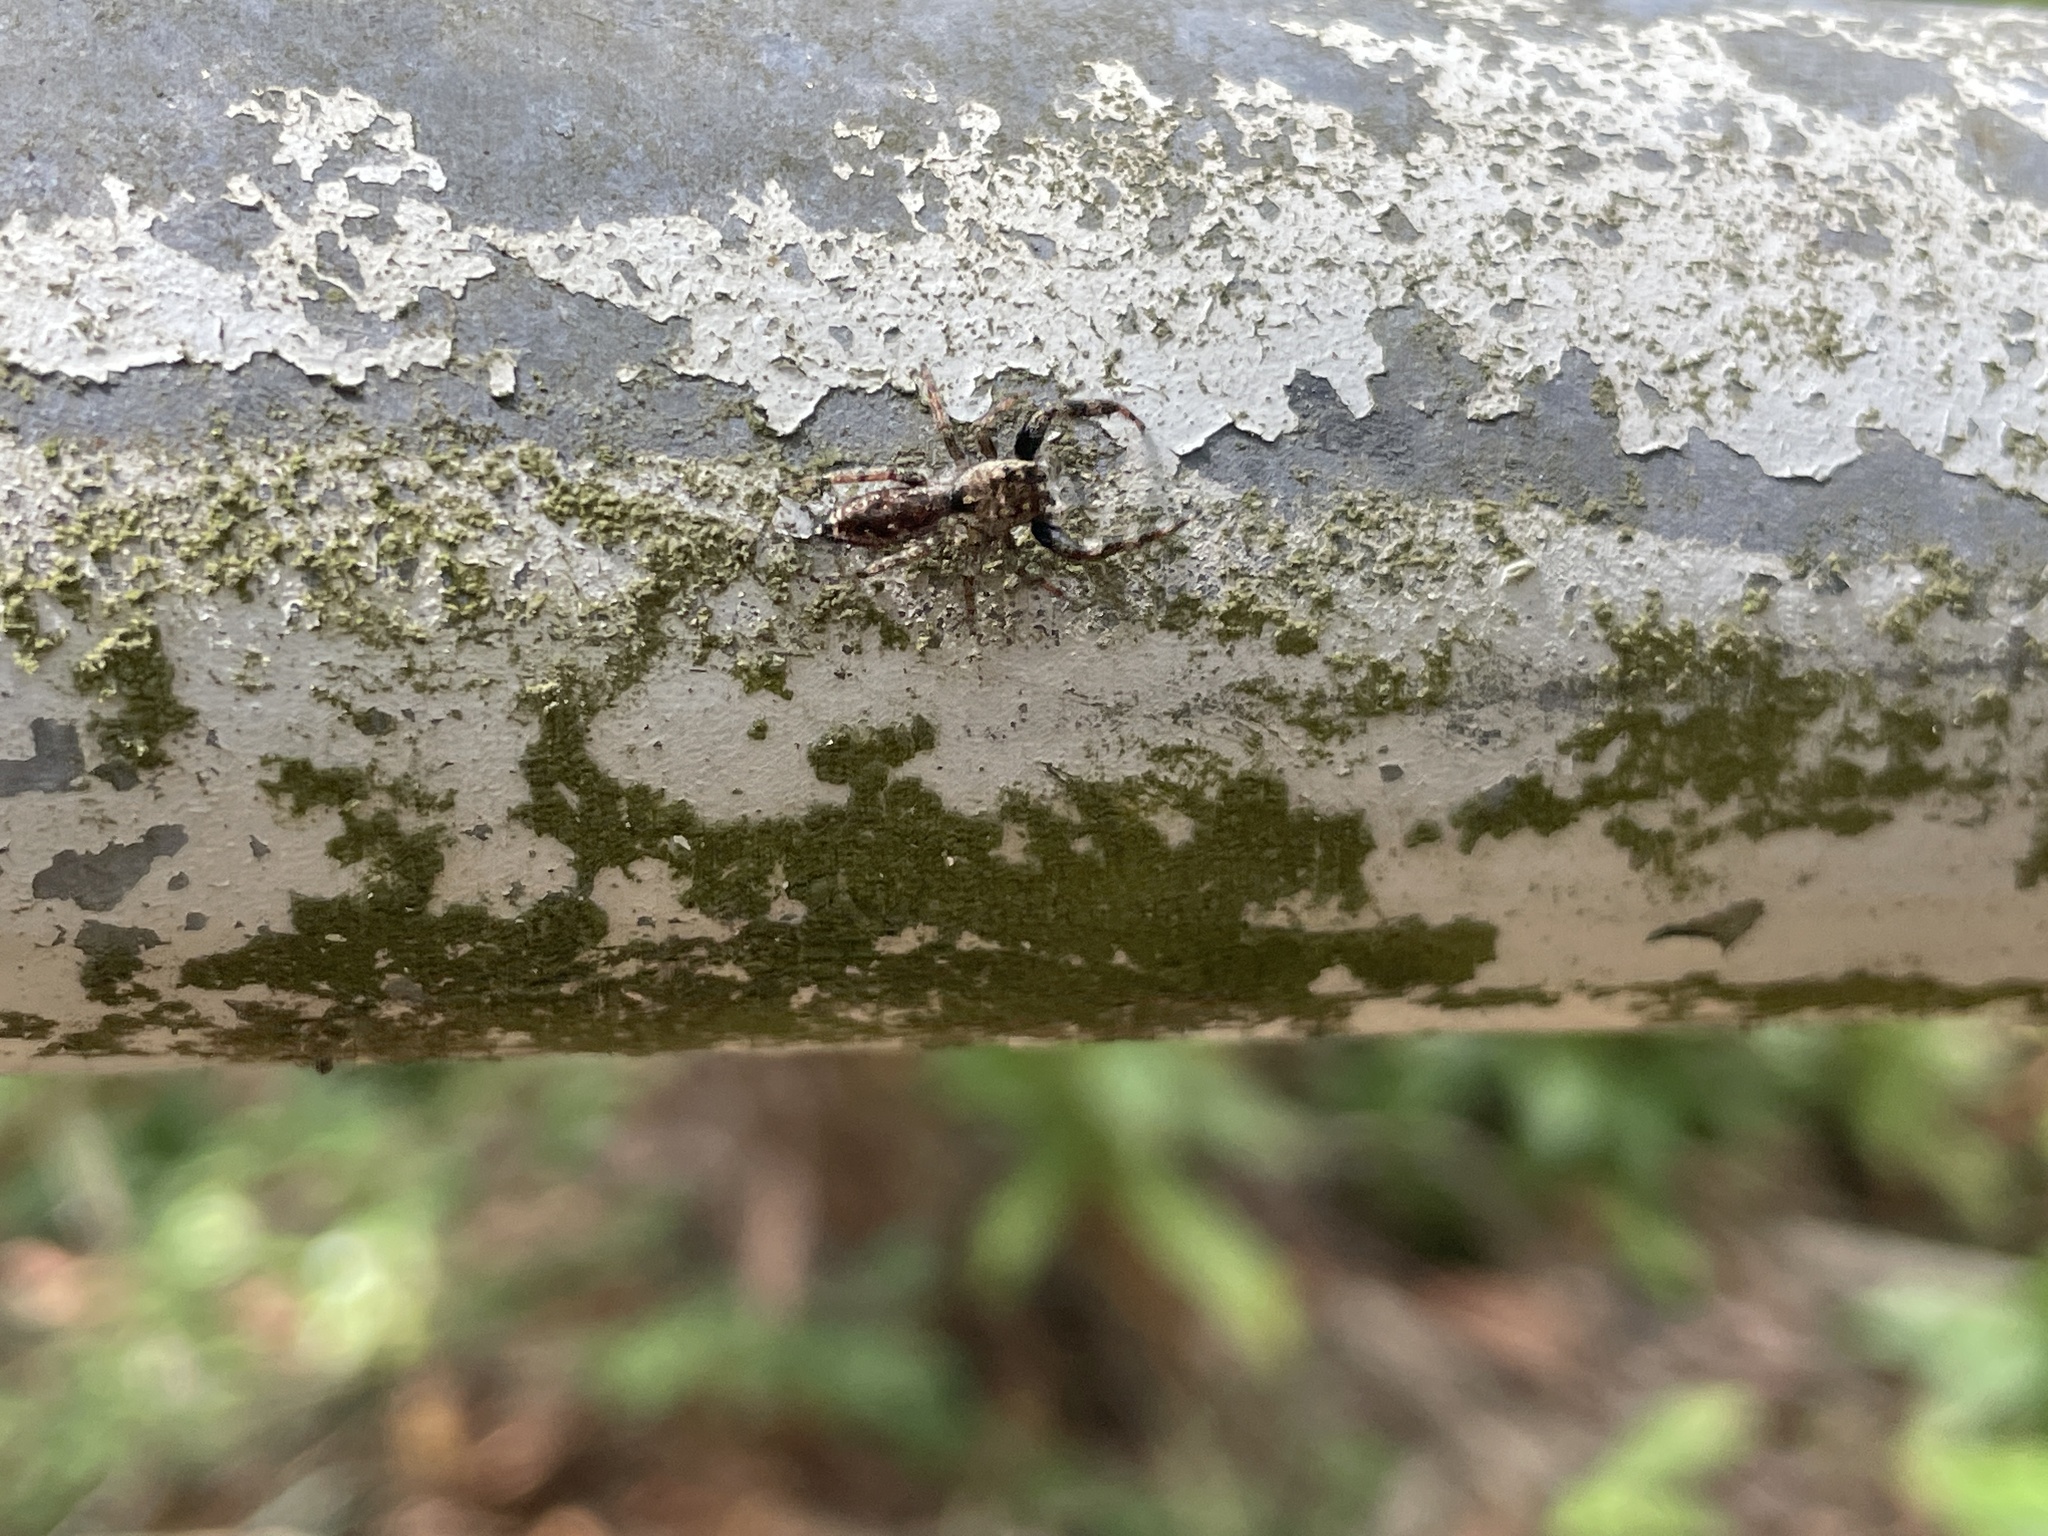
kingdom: Animalia
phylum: Arthropoda
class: Arachnida
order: Araneae
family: Salticidae
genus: Kelawakaju
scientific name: Kelawakaju frenata
